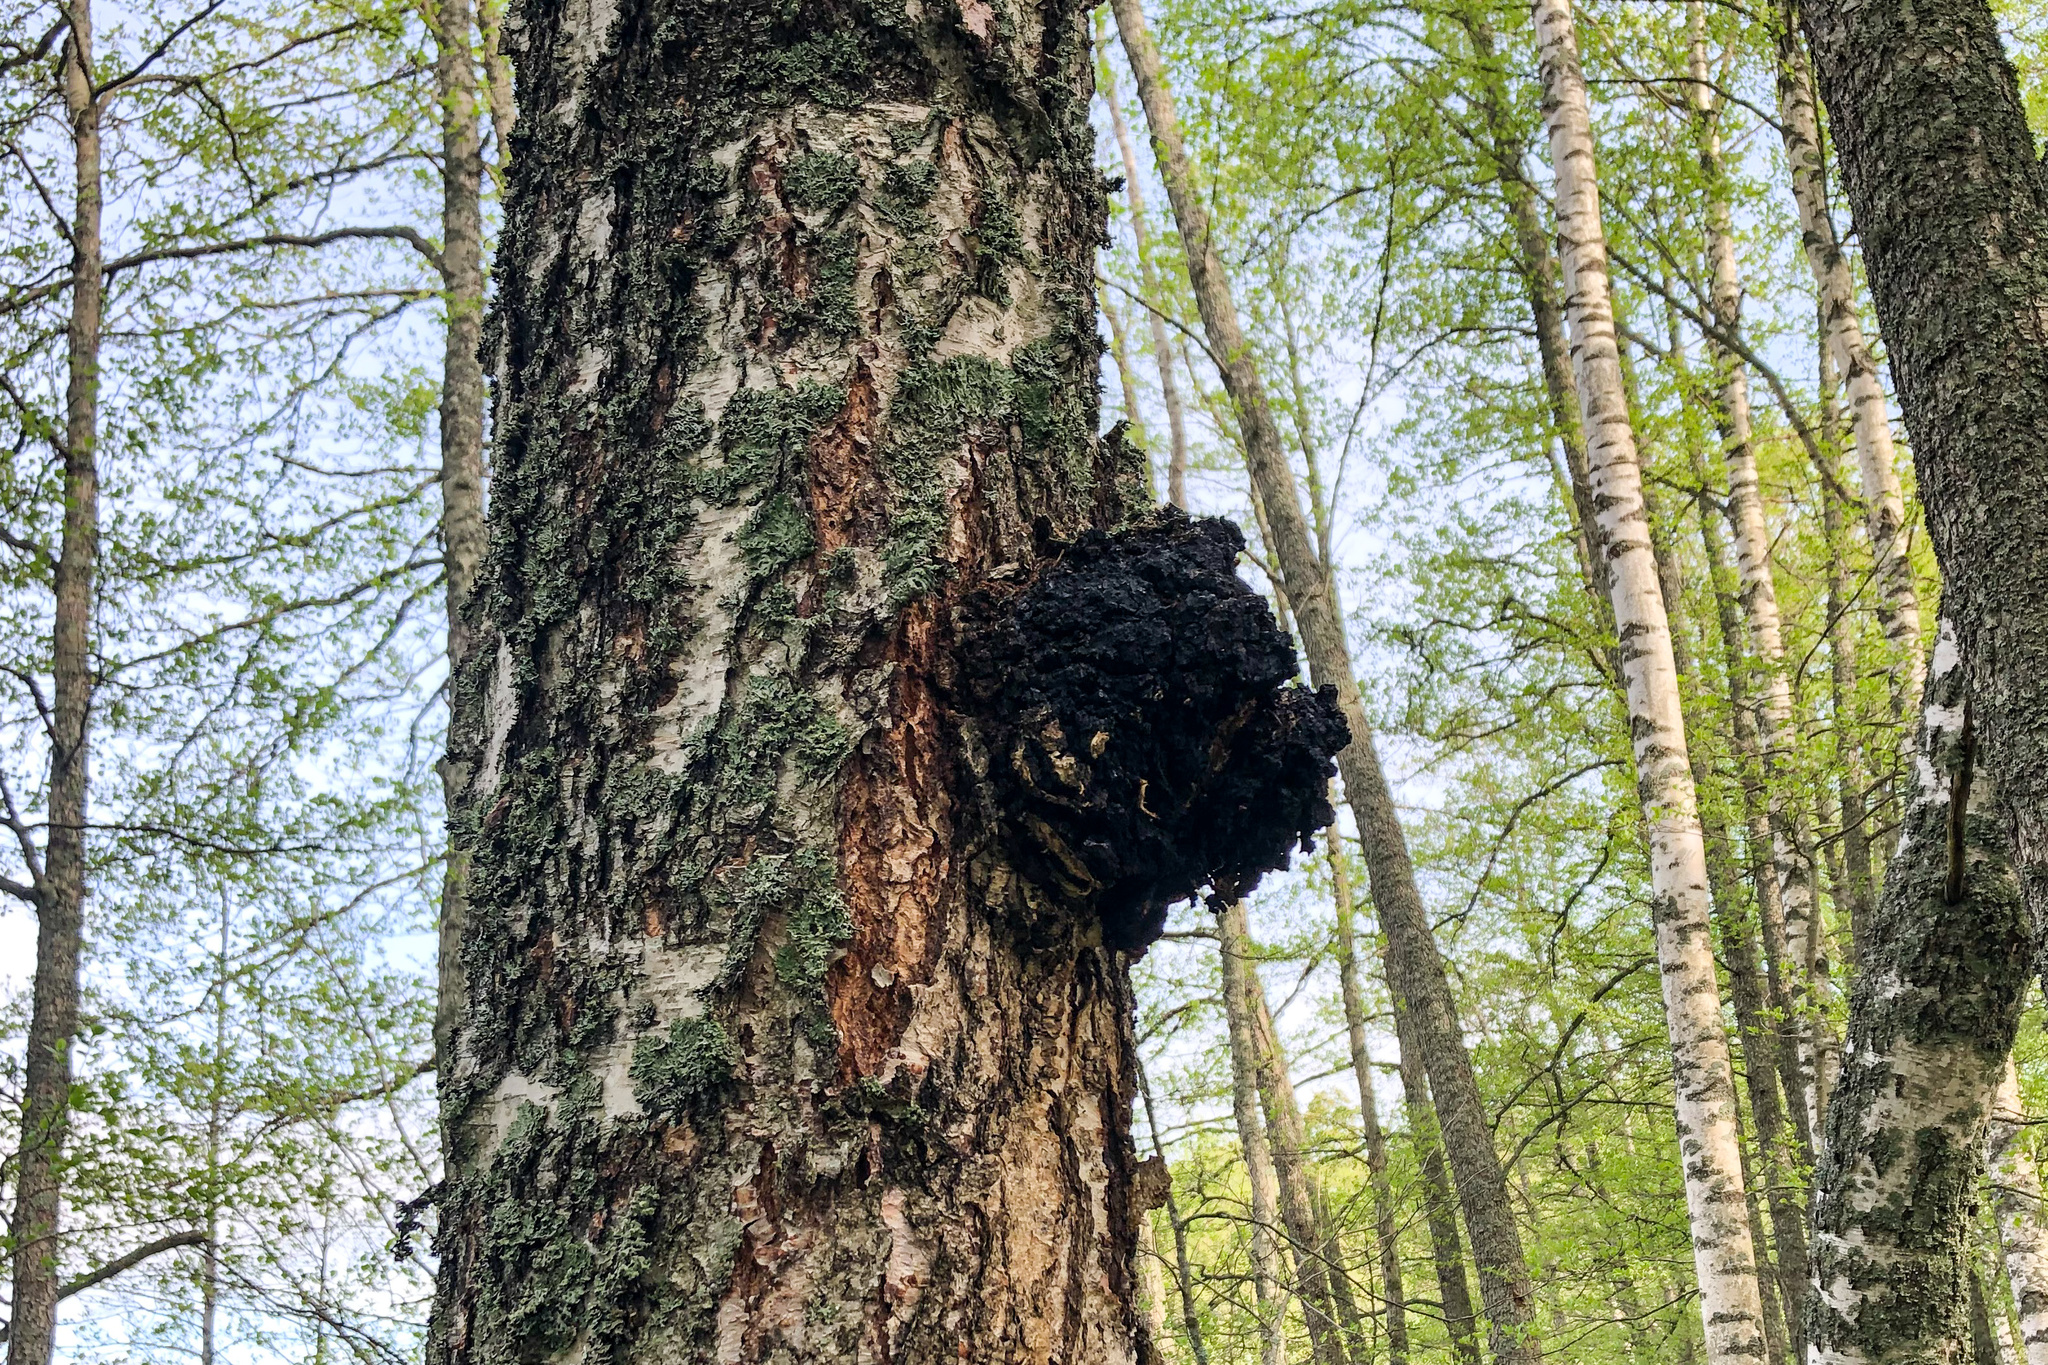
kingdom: Fungi
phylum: Basidiomycota
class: Agaricomycetes
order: Hymenochaetales
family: Hymenochaetaceae
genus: Inonotus
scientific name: Inonotus obliquus
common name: Chaga
